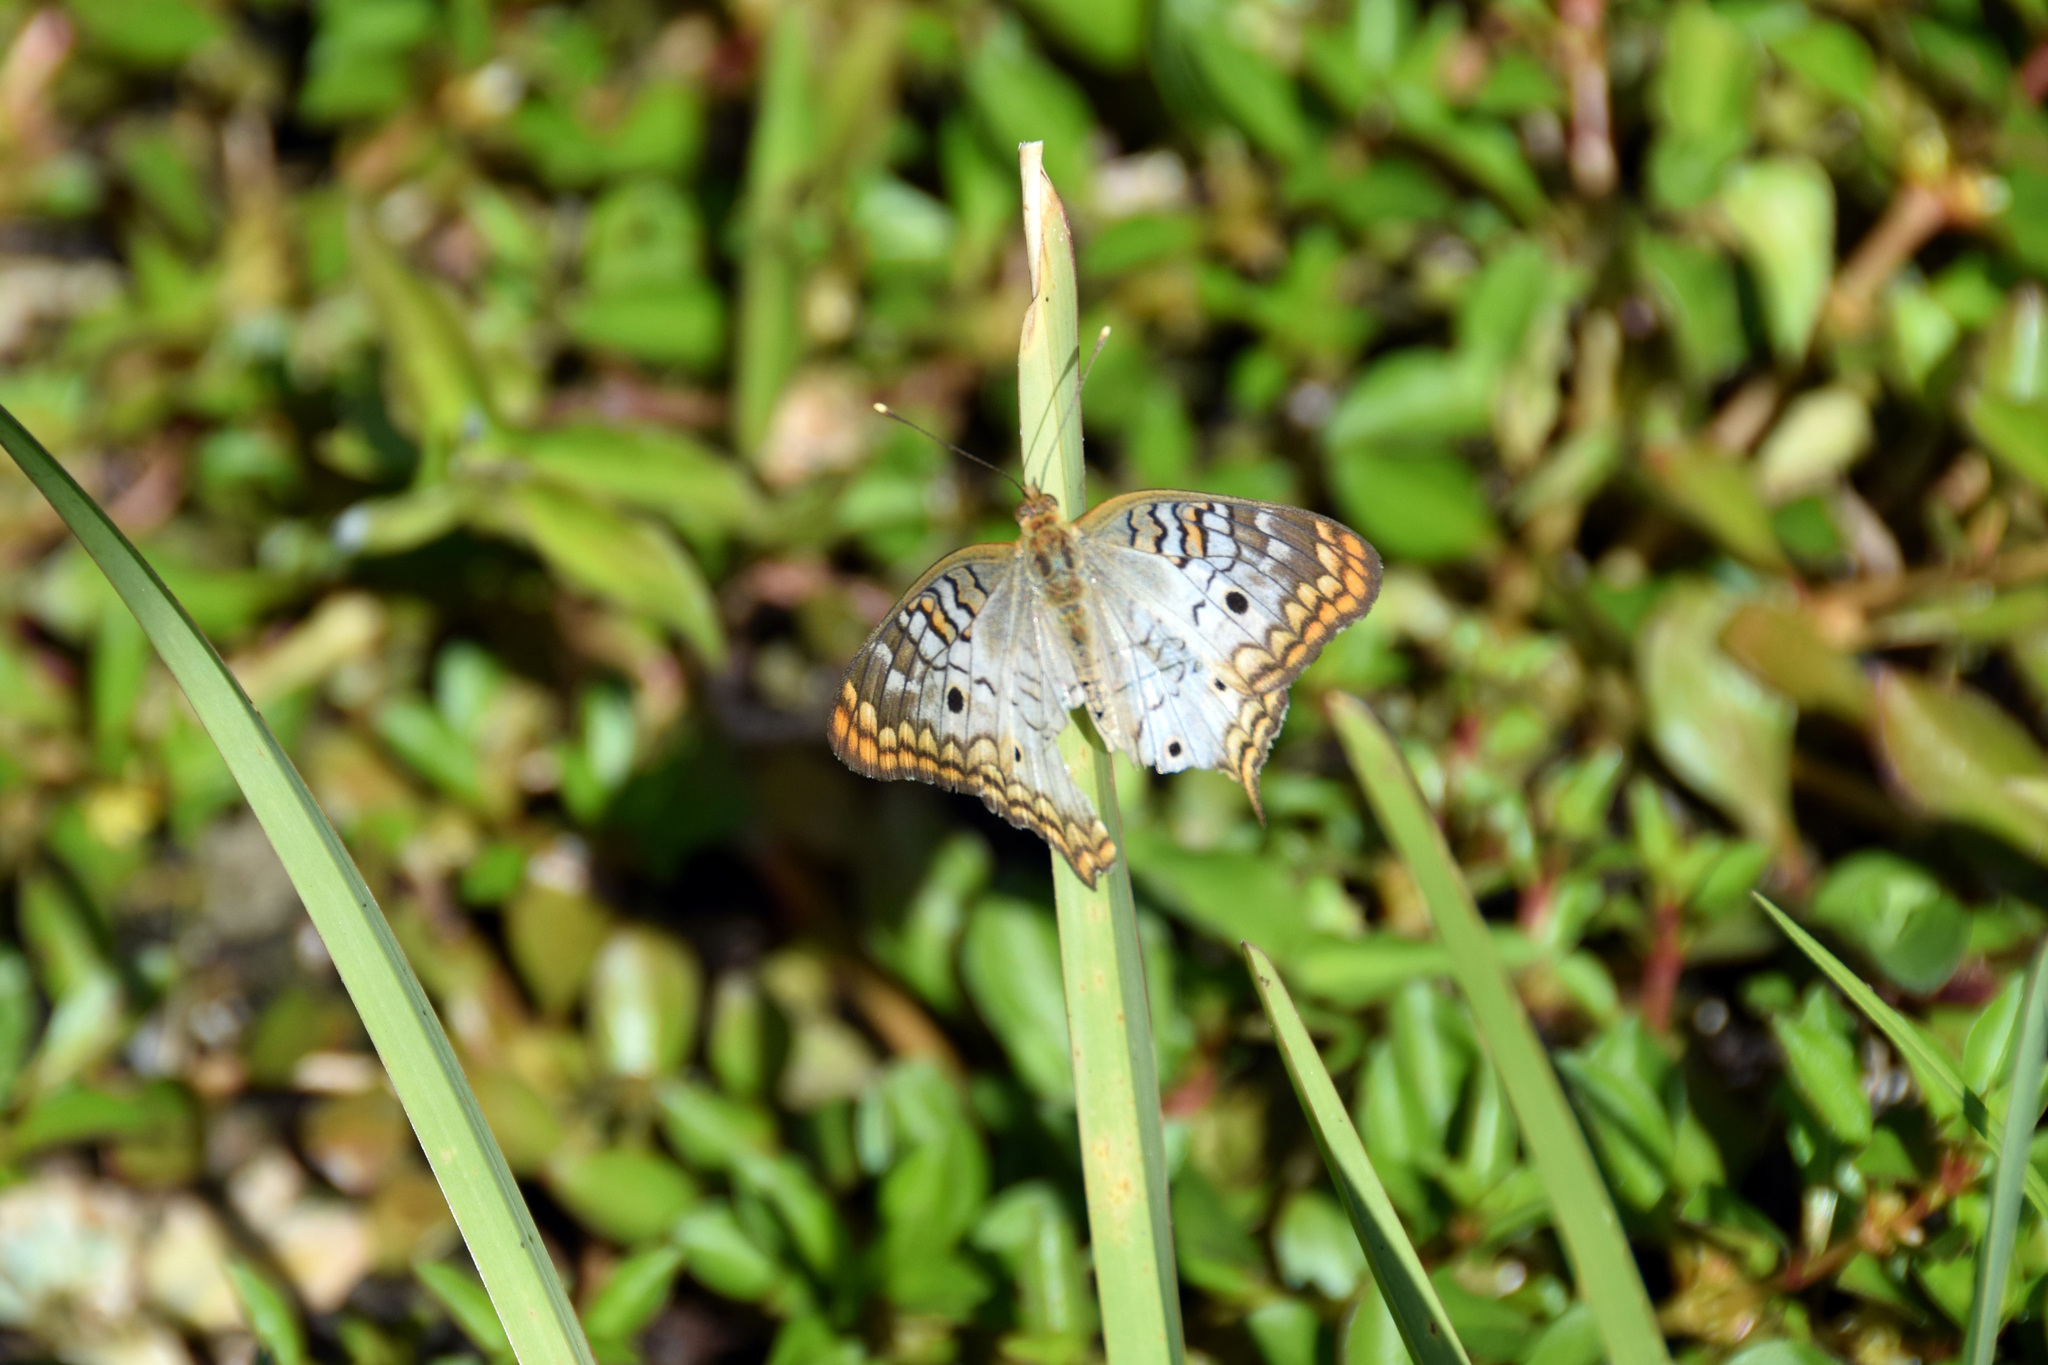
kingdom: Animalia
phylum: Arthropoda
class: Insecta
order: Lepidoptera
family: Nymphalidae
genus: Anartia
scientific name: Anartia jatrophae
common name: White peacock
